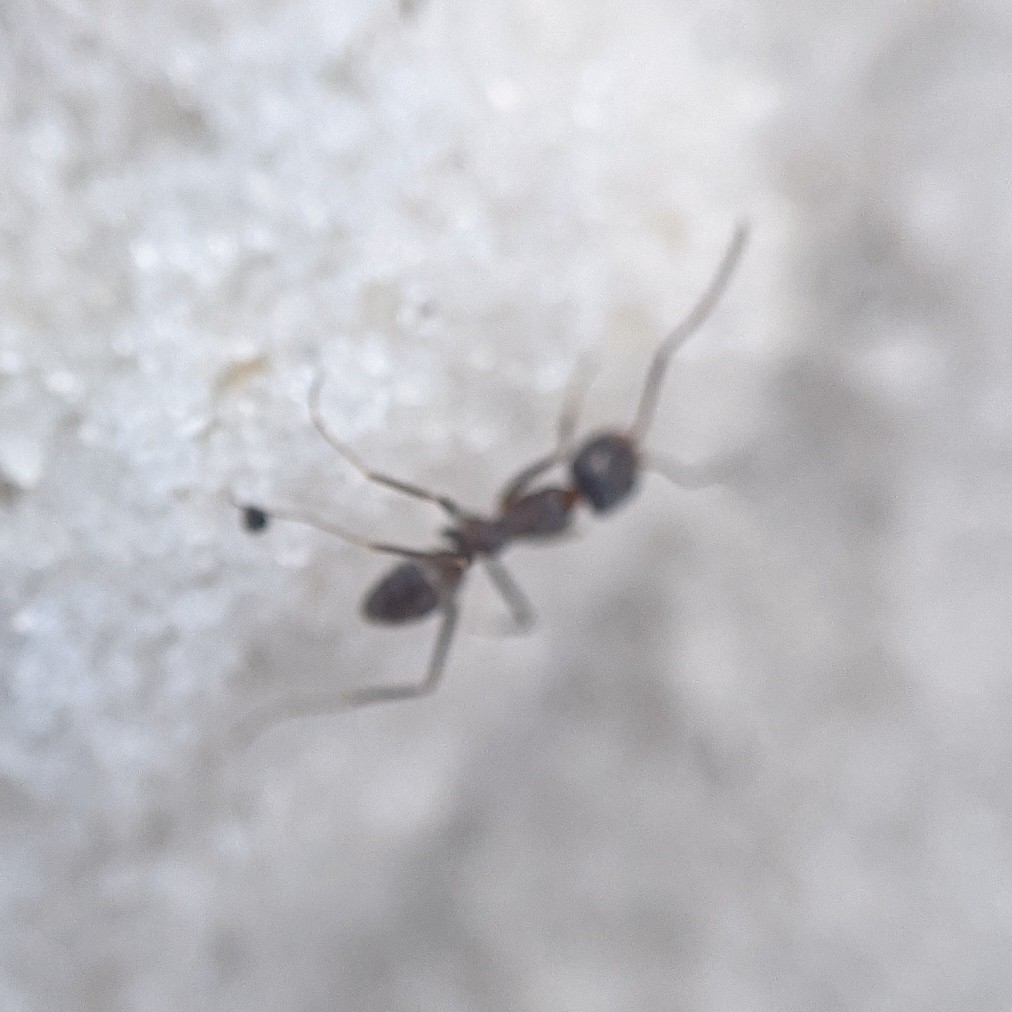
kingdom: Animalia
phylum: Arthropoda
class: Insecta
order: Hymenoptera
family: Formicidae
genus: Dorymyrmex
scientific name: Dorymyrmex grandulus
